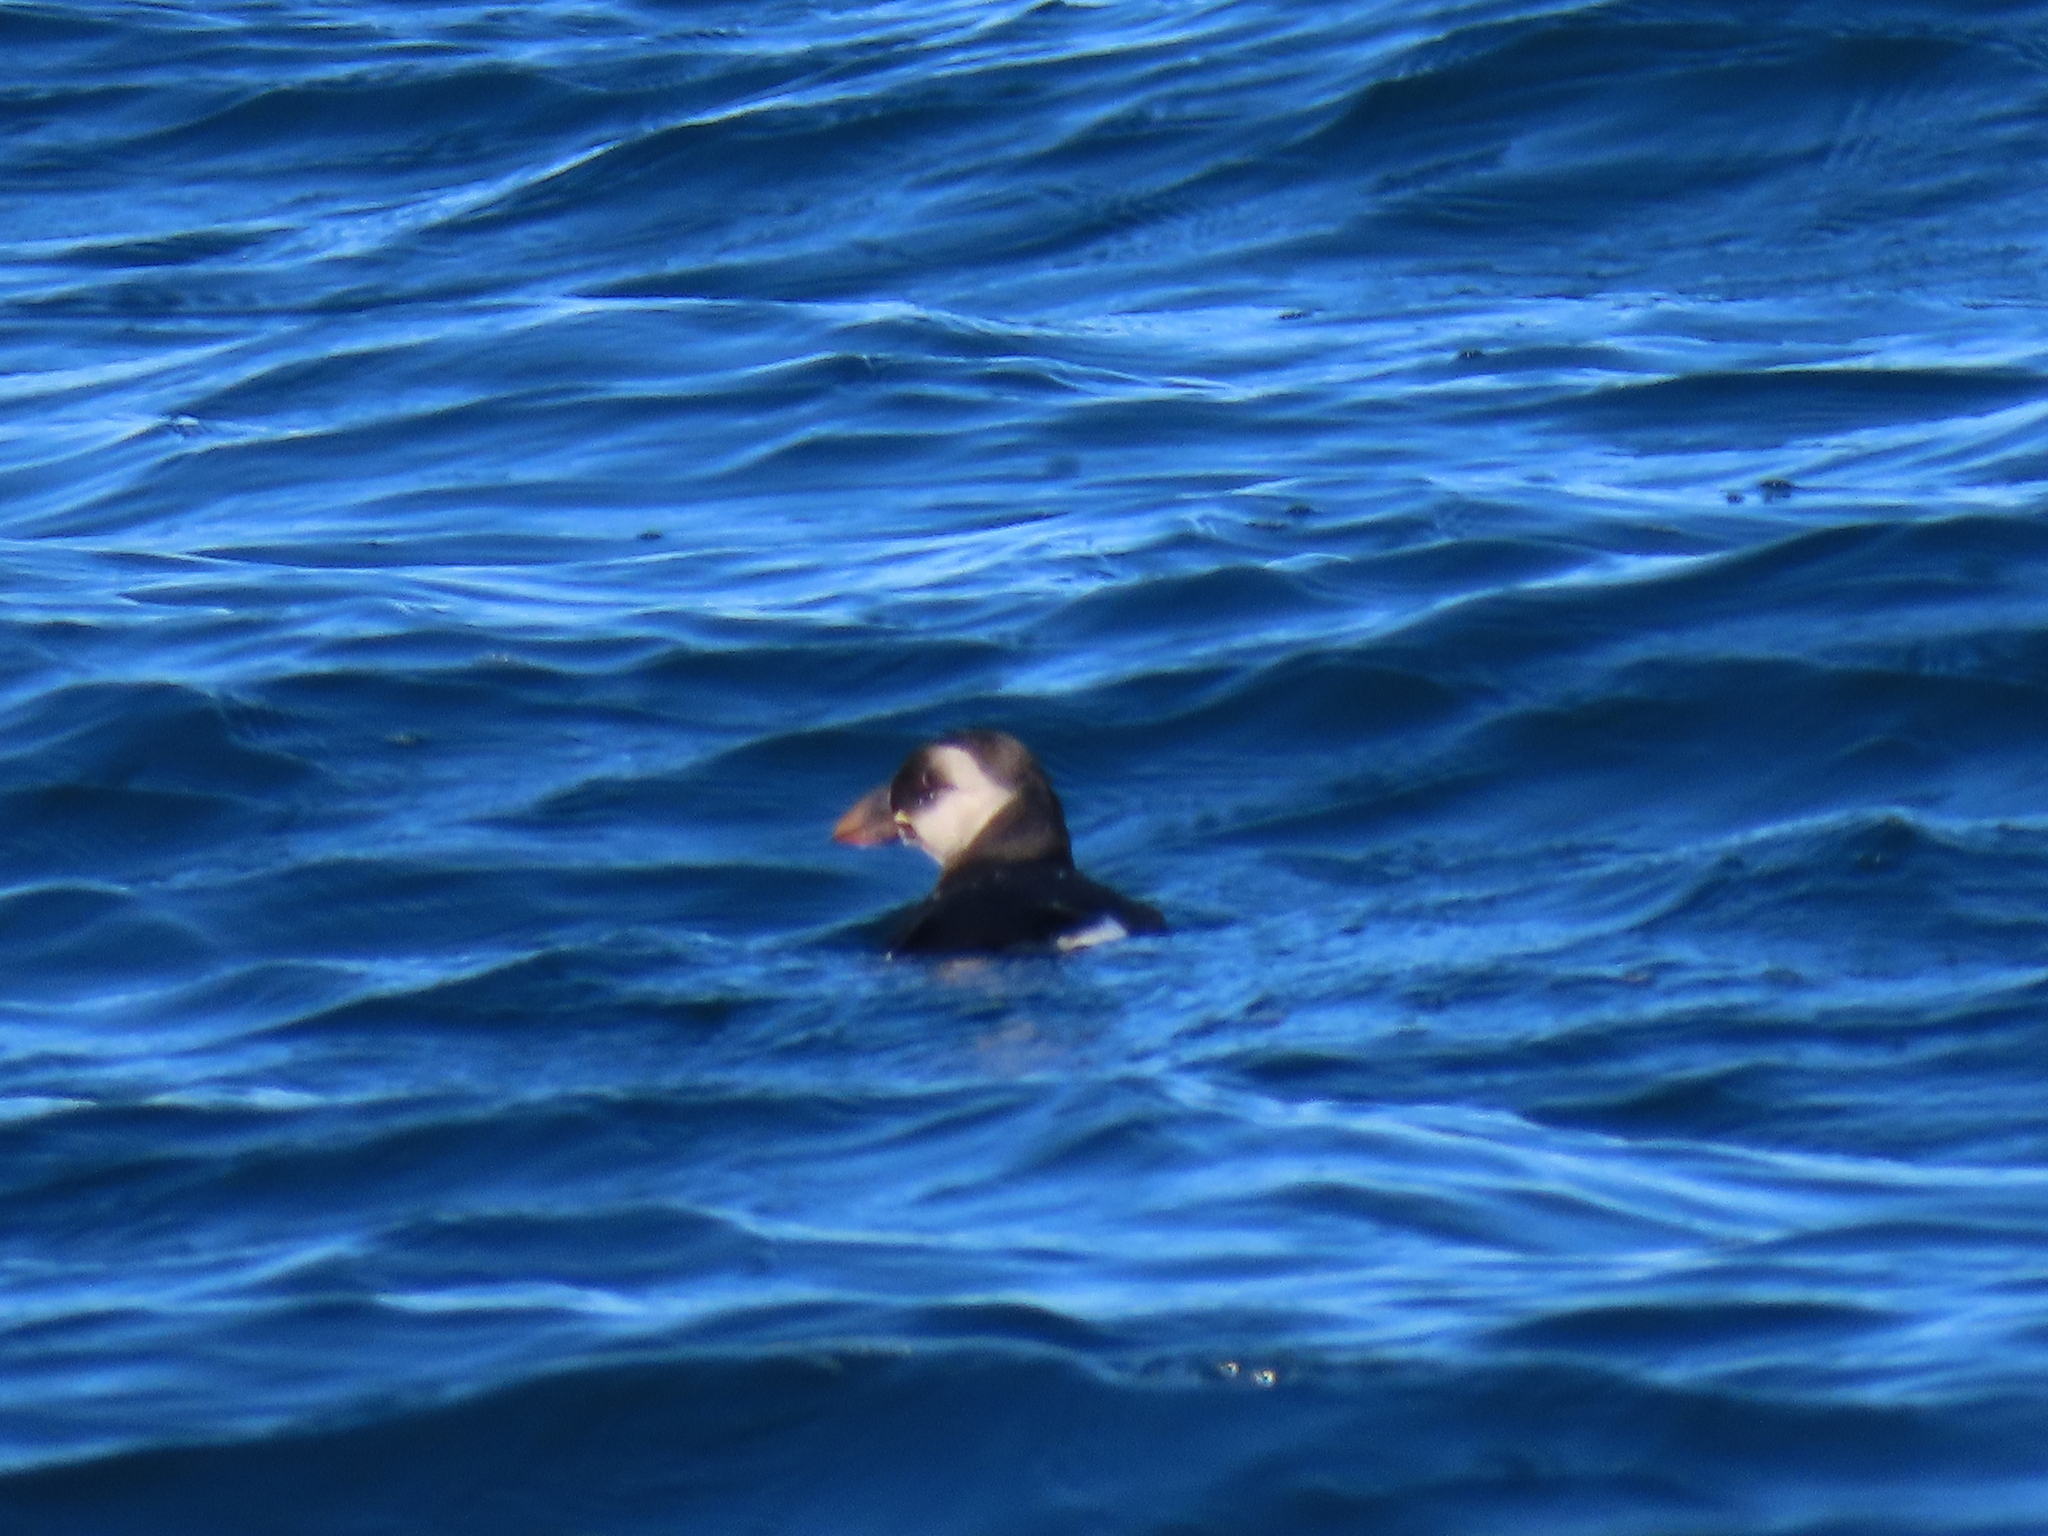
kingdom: Animalia
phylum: Chordata
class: Aves
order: Charadriiformes
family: Alcidae
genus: Fratercula
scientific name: Fratercula arctica
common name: Atlantic puffin
